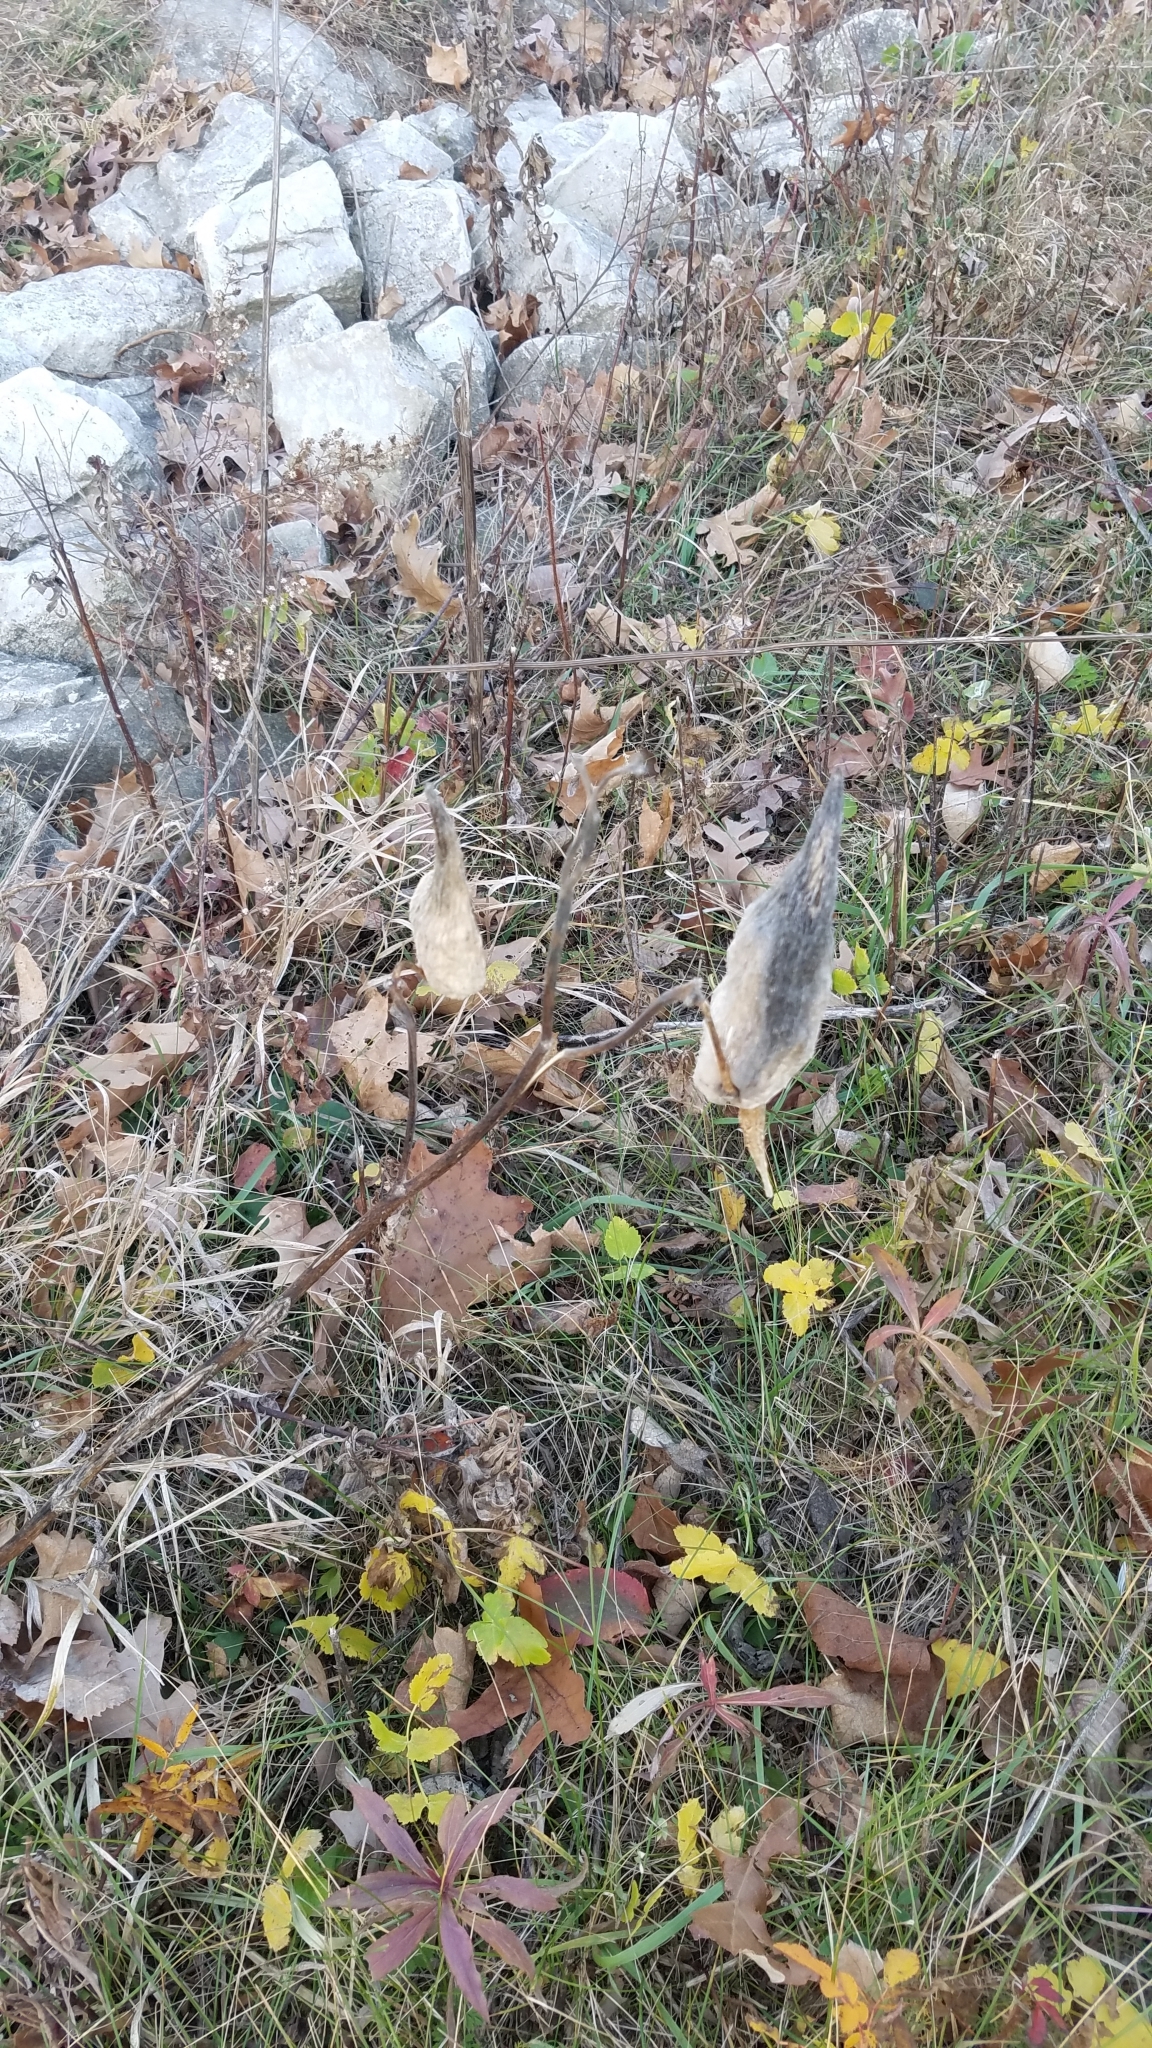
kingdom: Plantae
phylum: Tracheophyta
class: Magnoliopsida
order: Gentianales
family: Apocynaceae
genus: Asclepias
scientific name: Asclepias syriaca
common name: Common milkweed
